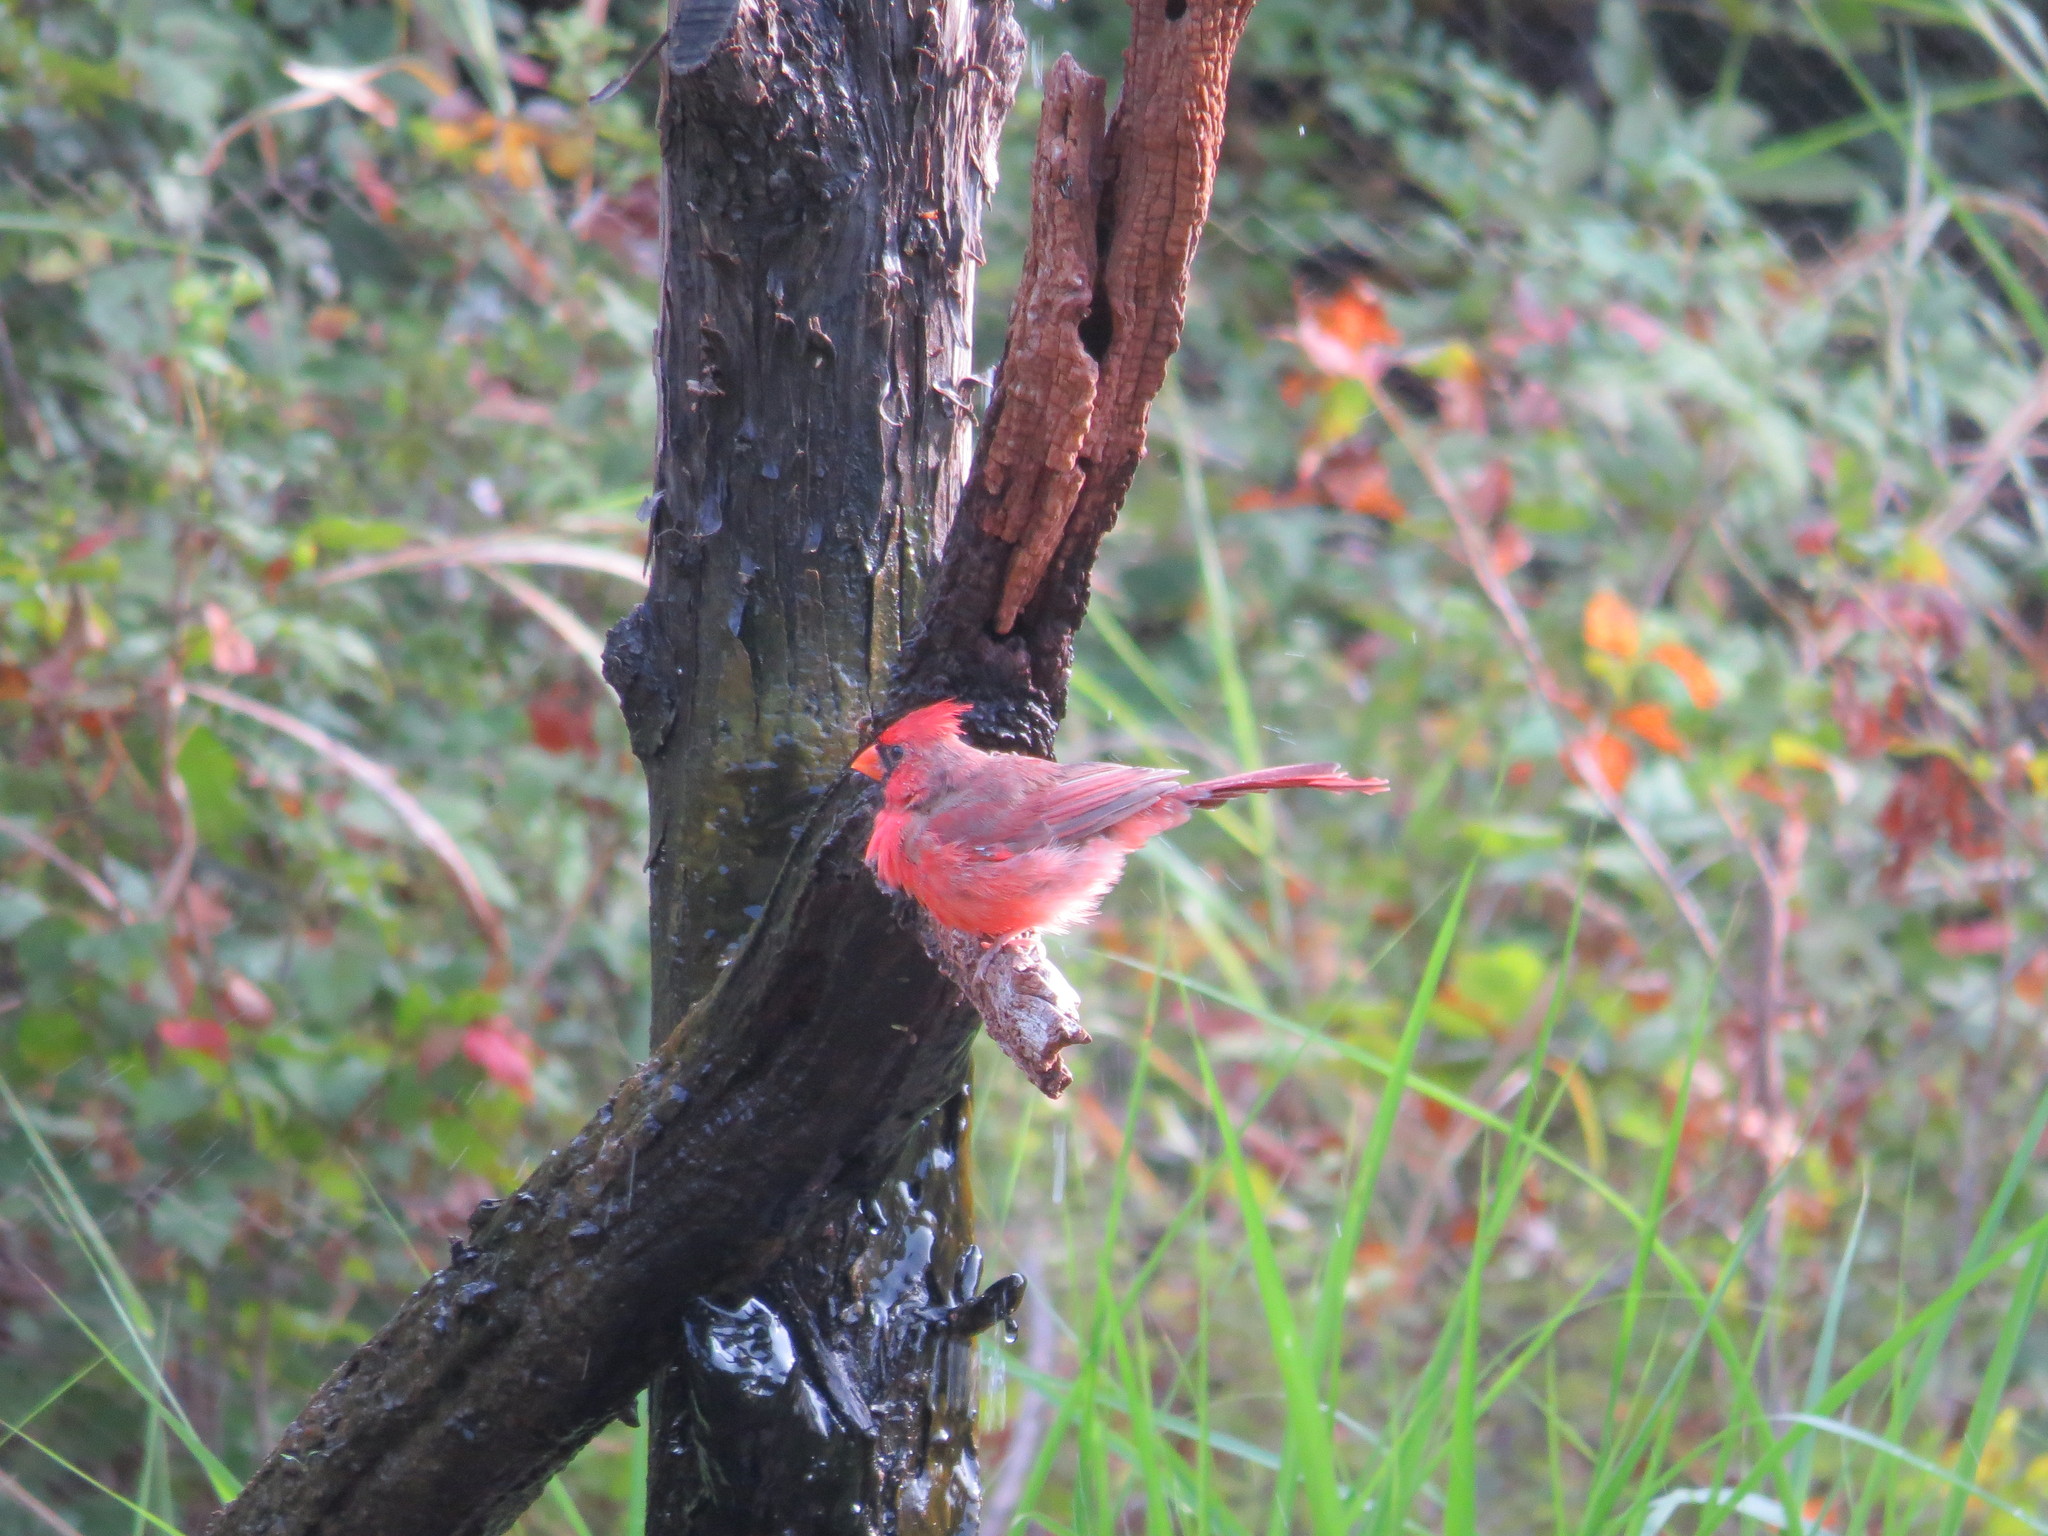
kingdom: Animalia
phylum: Chordata
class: Aves
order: Passeriformes
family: Cardinalidae
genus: Cardinalis
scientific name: Cardinalis cardinalis
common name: Northern cardinal
